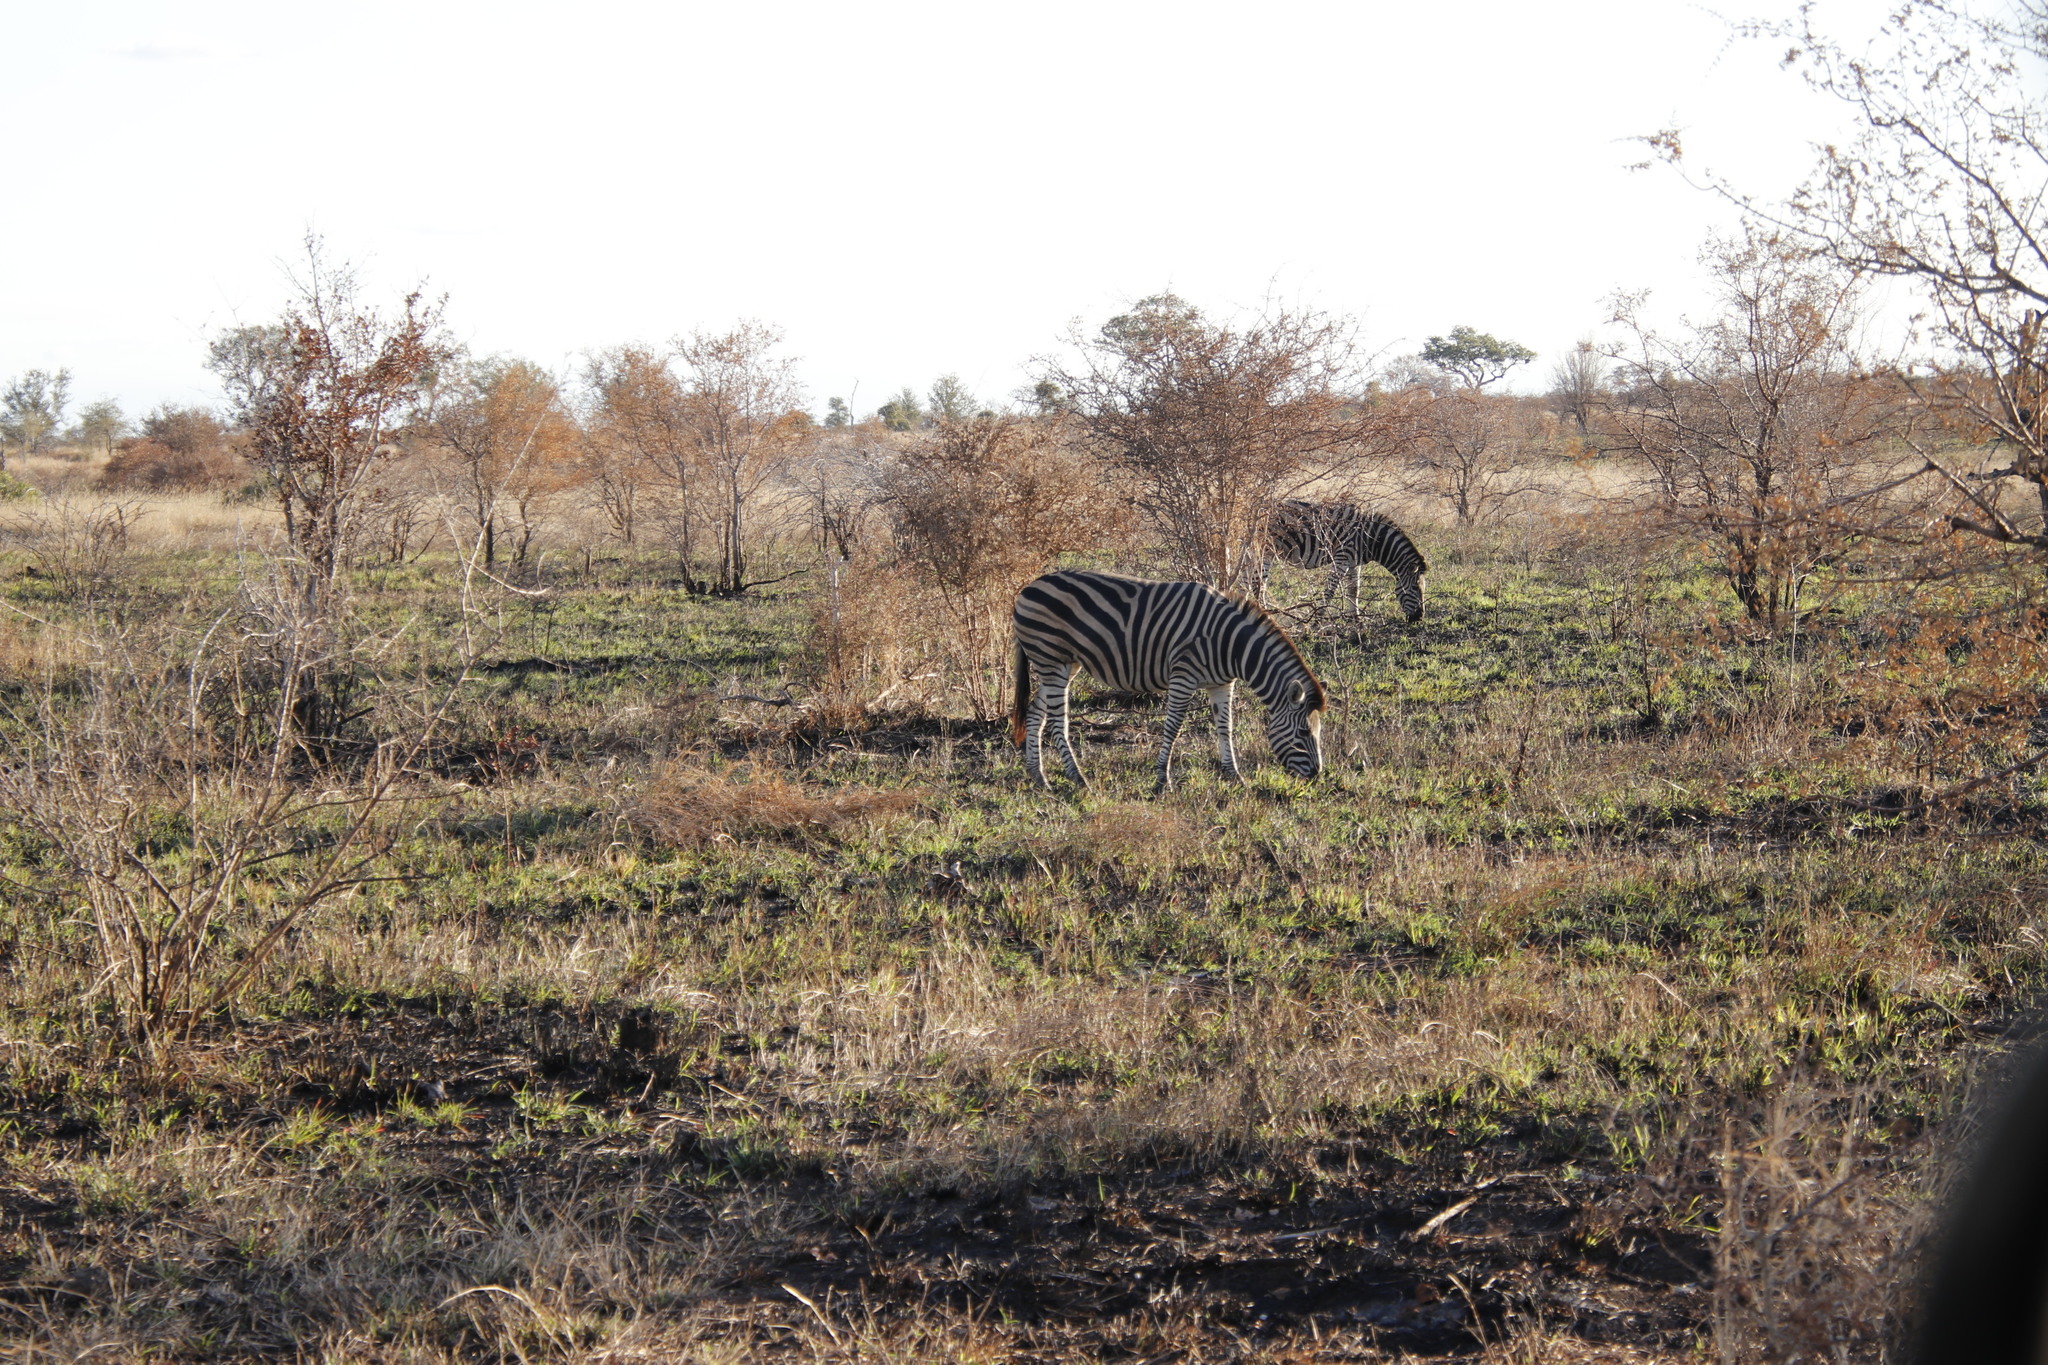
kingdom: Animalia
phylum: Chordata
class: Mammalia
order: Perissodactyla
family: Equidae
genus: Equus
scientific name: Equus quagga
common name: Plains zebra
